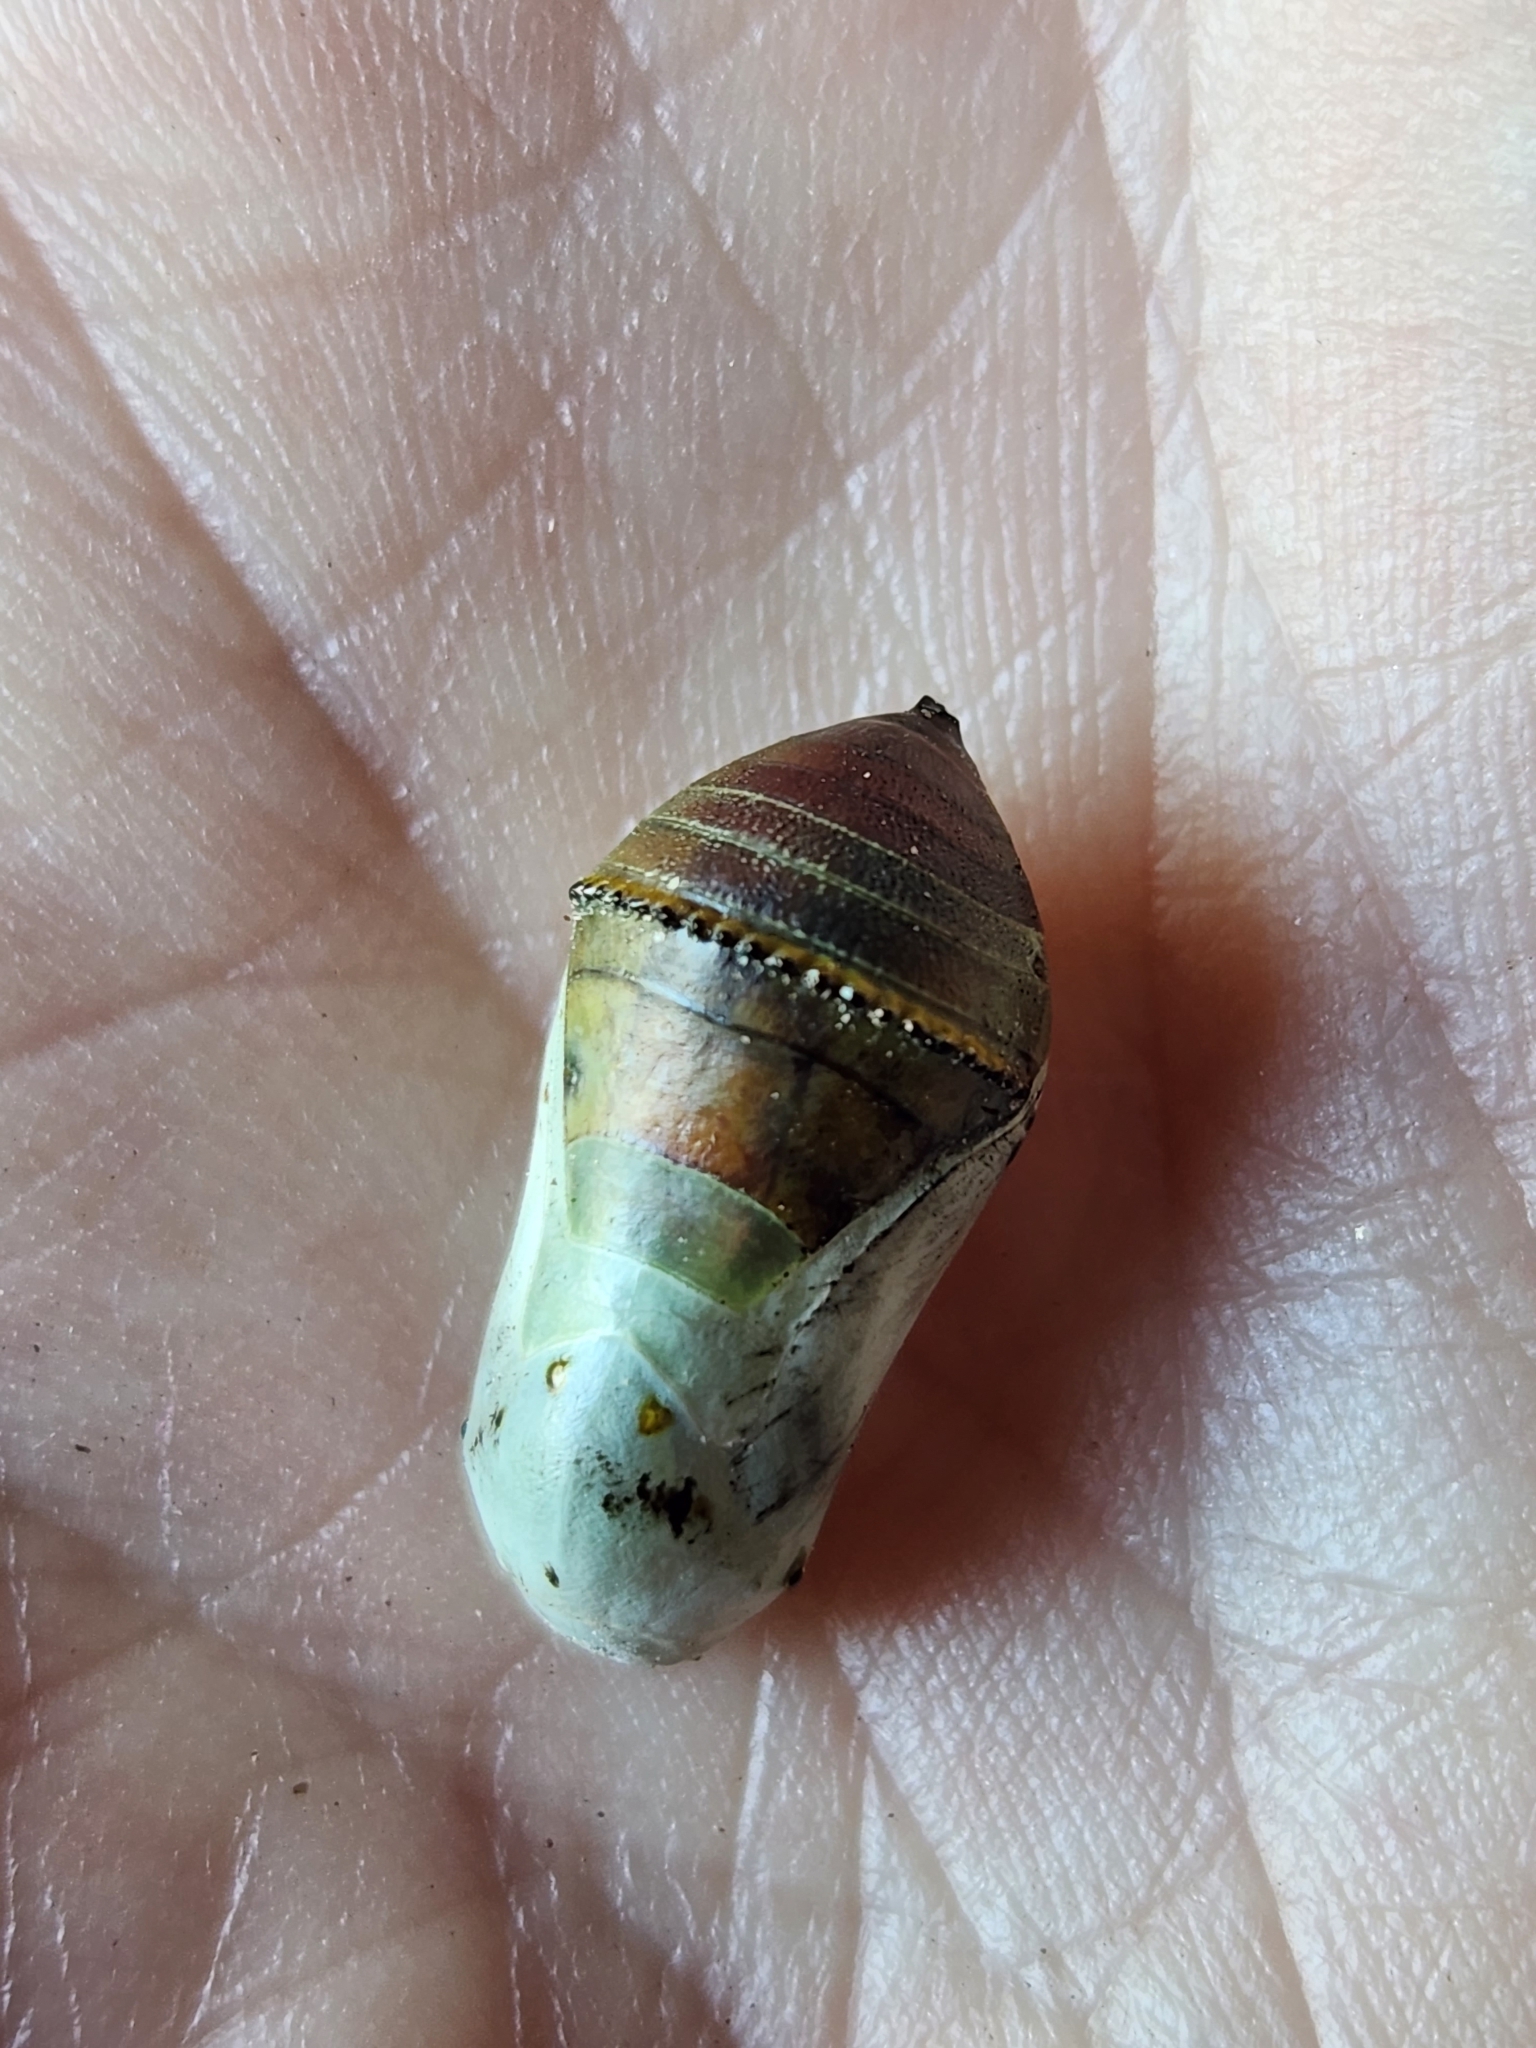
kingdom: Animalia
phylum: Arthropoda
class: Insecta
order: Lepidoptera
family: Nymphalidae
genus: Danaus
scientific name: Danaus plexippus
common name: Monarch
